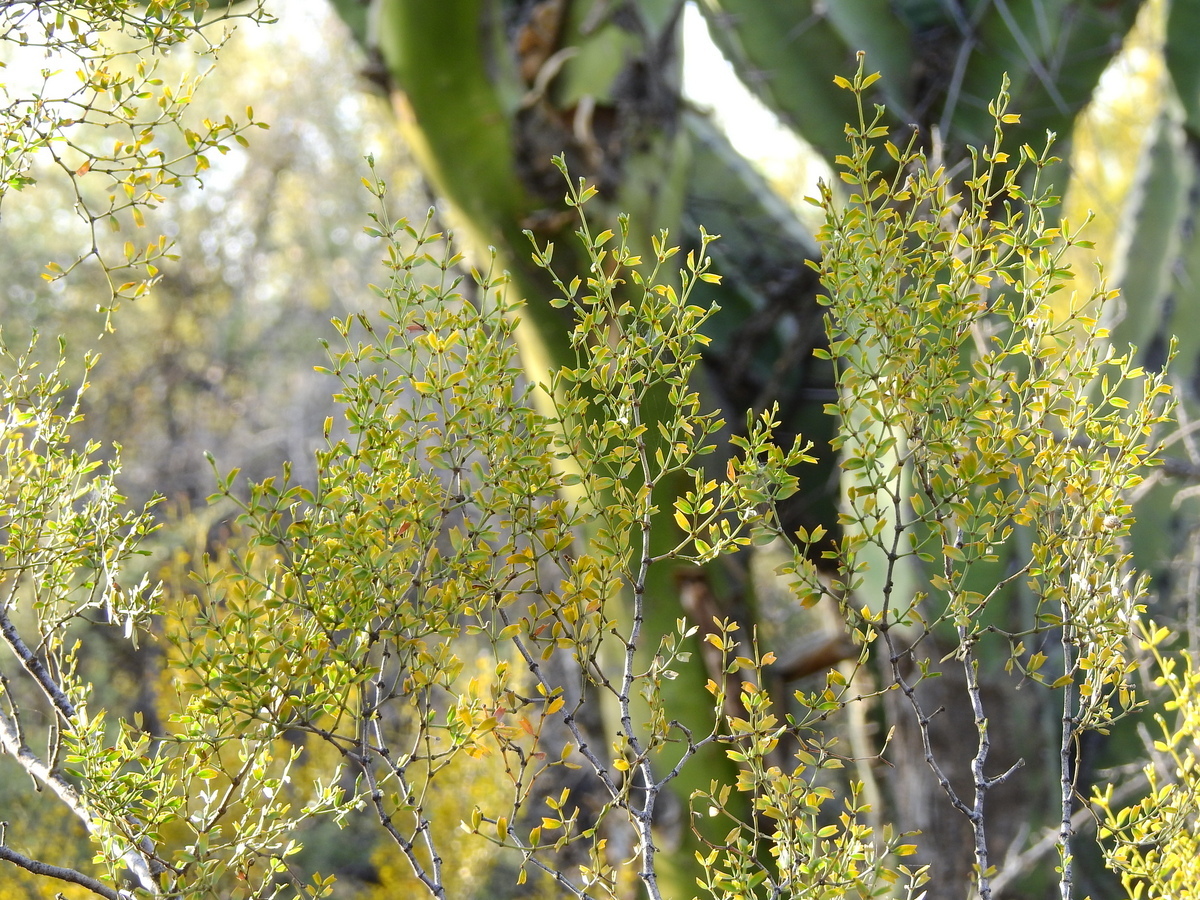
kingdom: Plantae
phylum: Tracheophyta
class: Magnoliopsida
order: Zygophyllales
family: Zygophyllaceae
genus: Larrea
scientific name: Larrea cuneifolia
